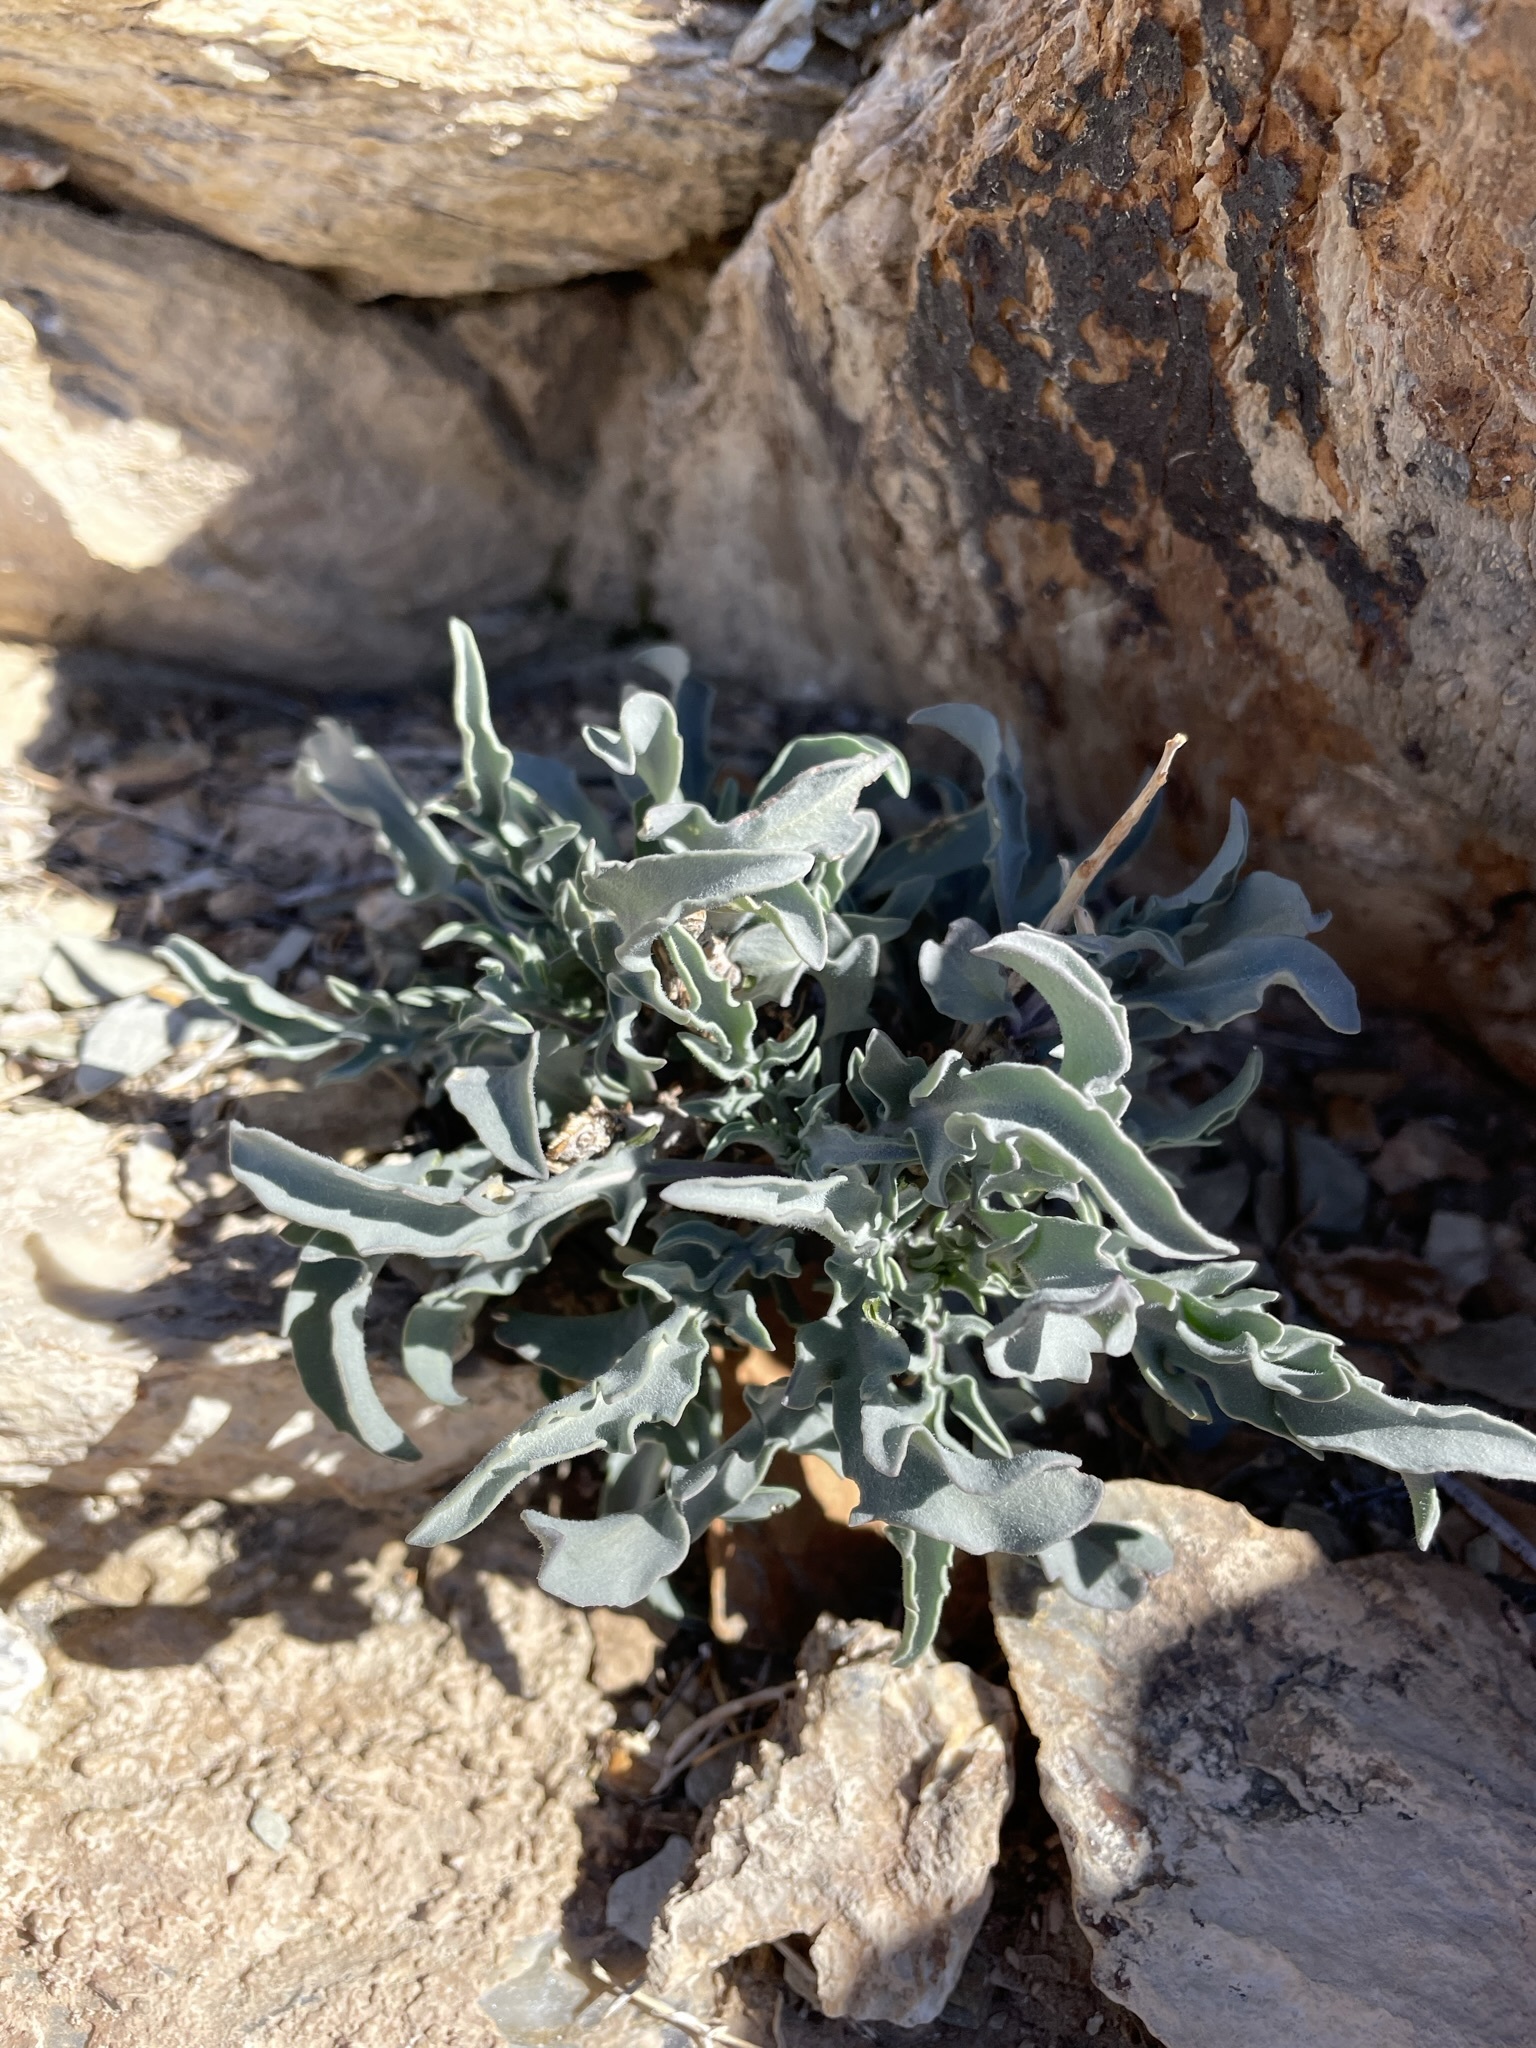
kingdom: Plantae
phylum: Tracheophyta
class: Magnoliopsida
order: Brassicales
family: Brassicaceae
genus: Stanleya
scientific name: Stanleya pinnata
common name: Prince's-plume
